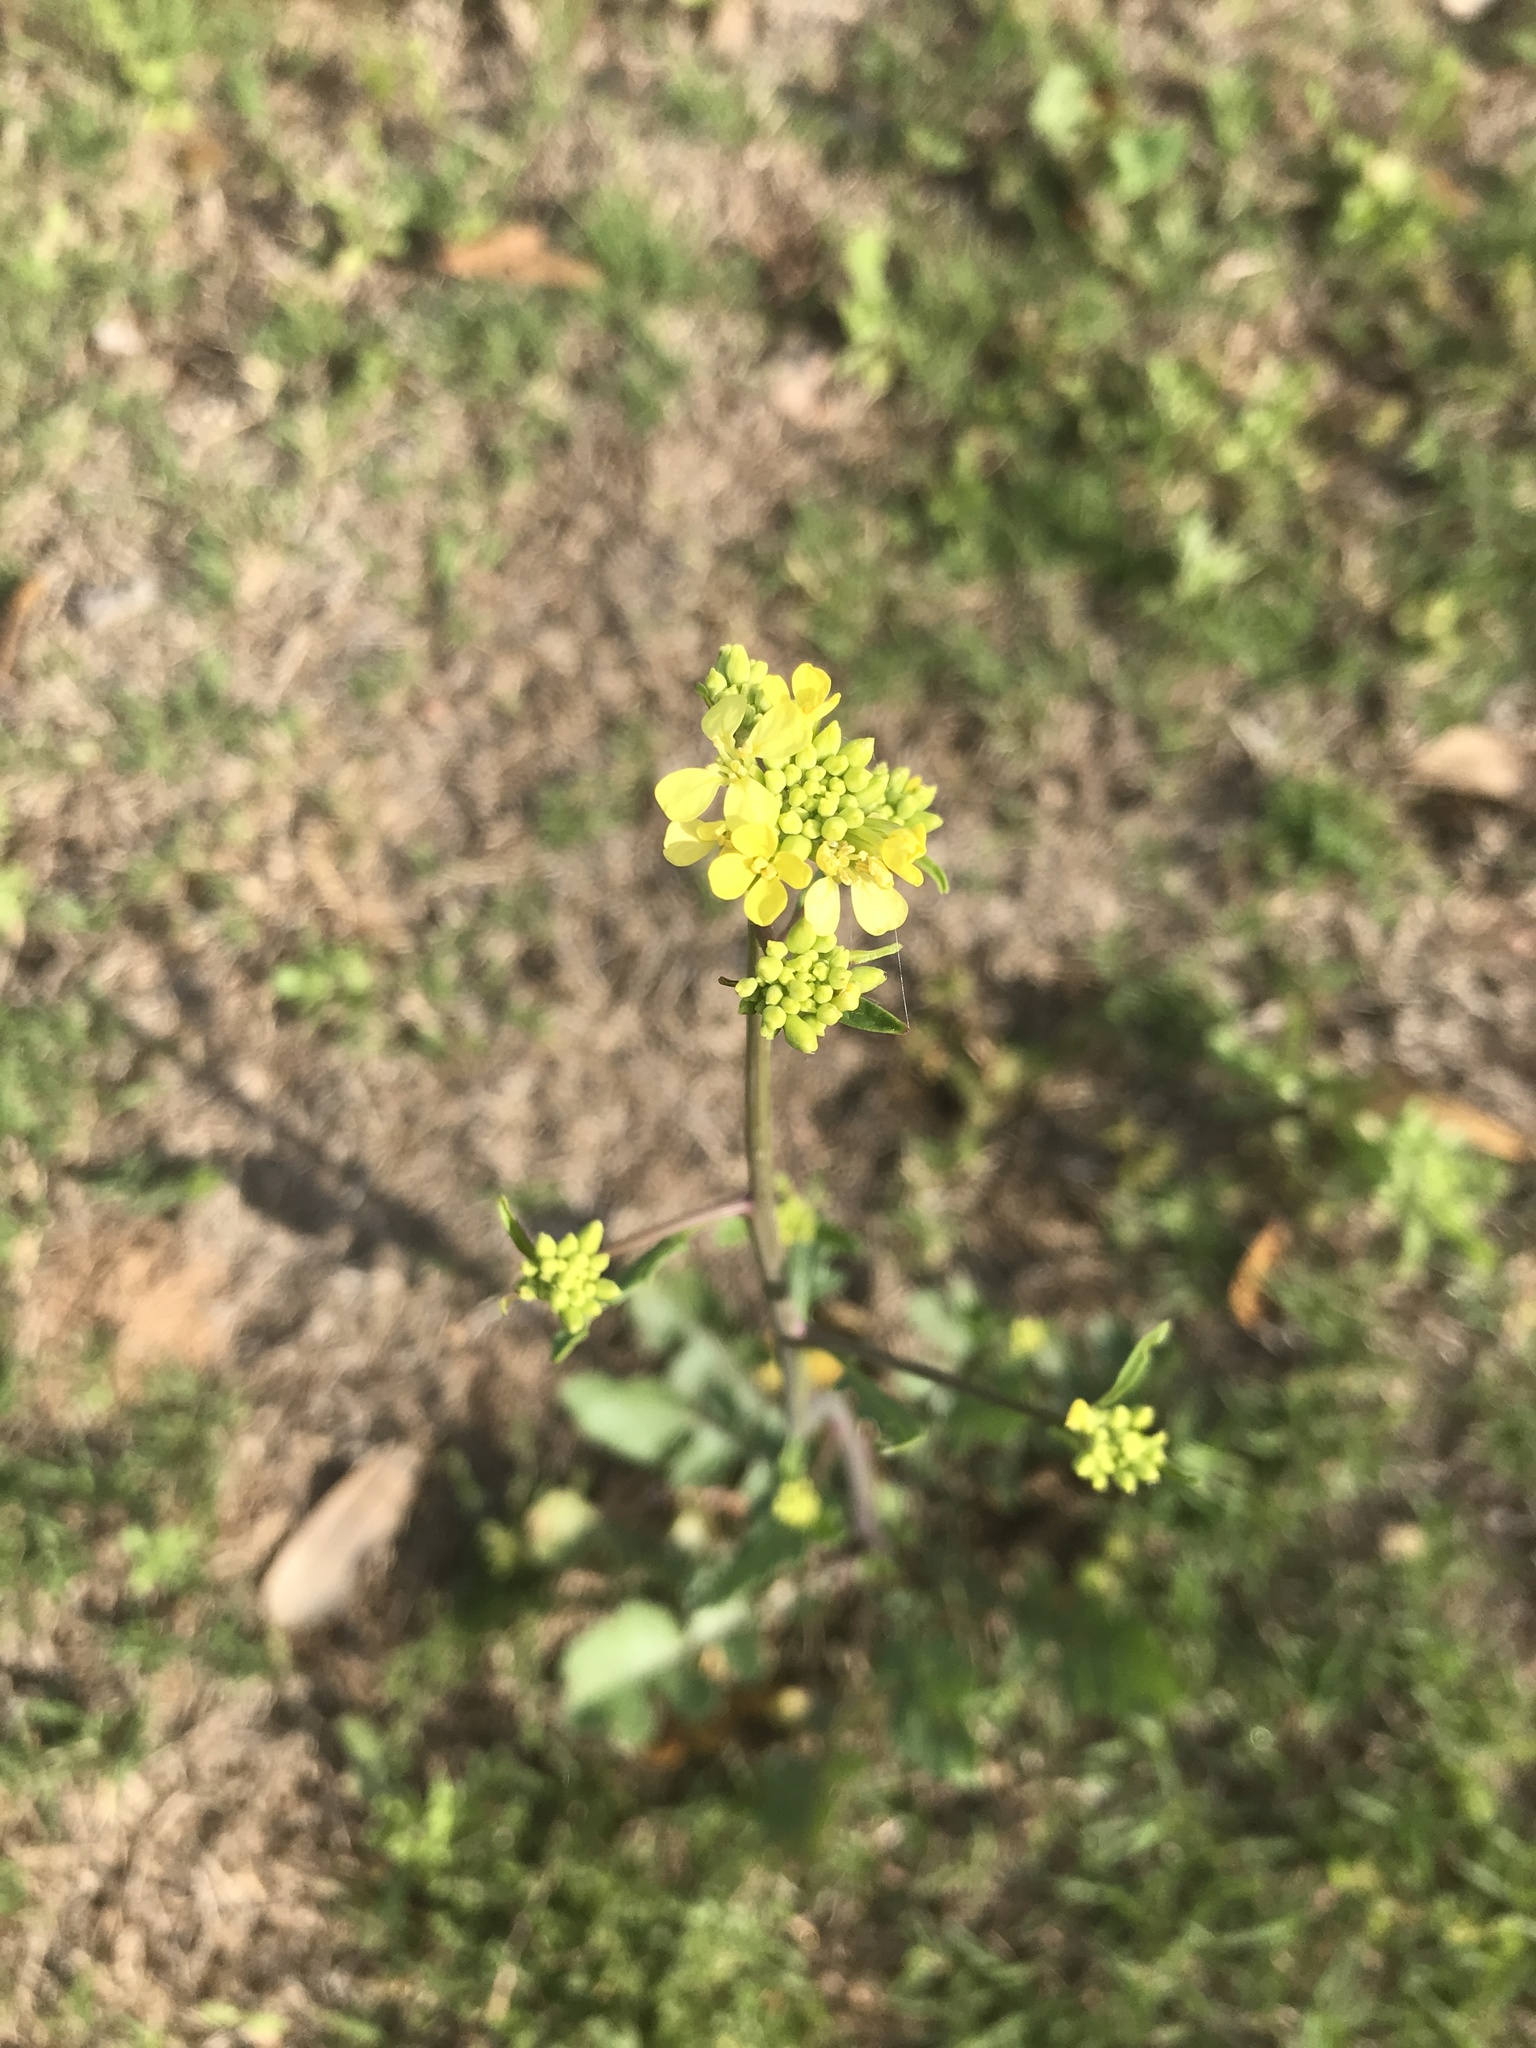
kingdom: Plantae
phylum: Tracheophyta
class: Magnoliopsida
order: Brassicales
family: Brassicaceae
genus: Rapistrum
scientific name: Rapistrum rugosum
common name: Annual bastardcabbage
